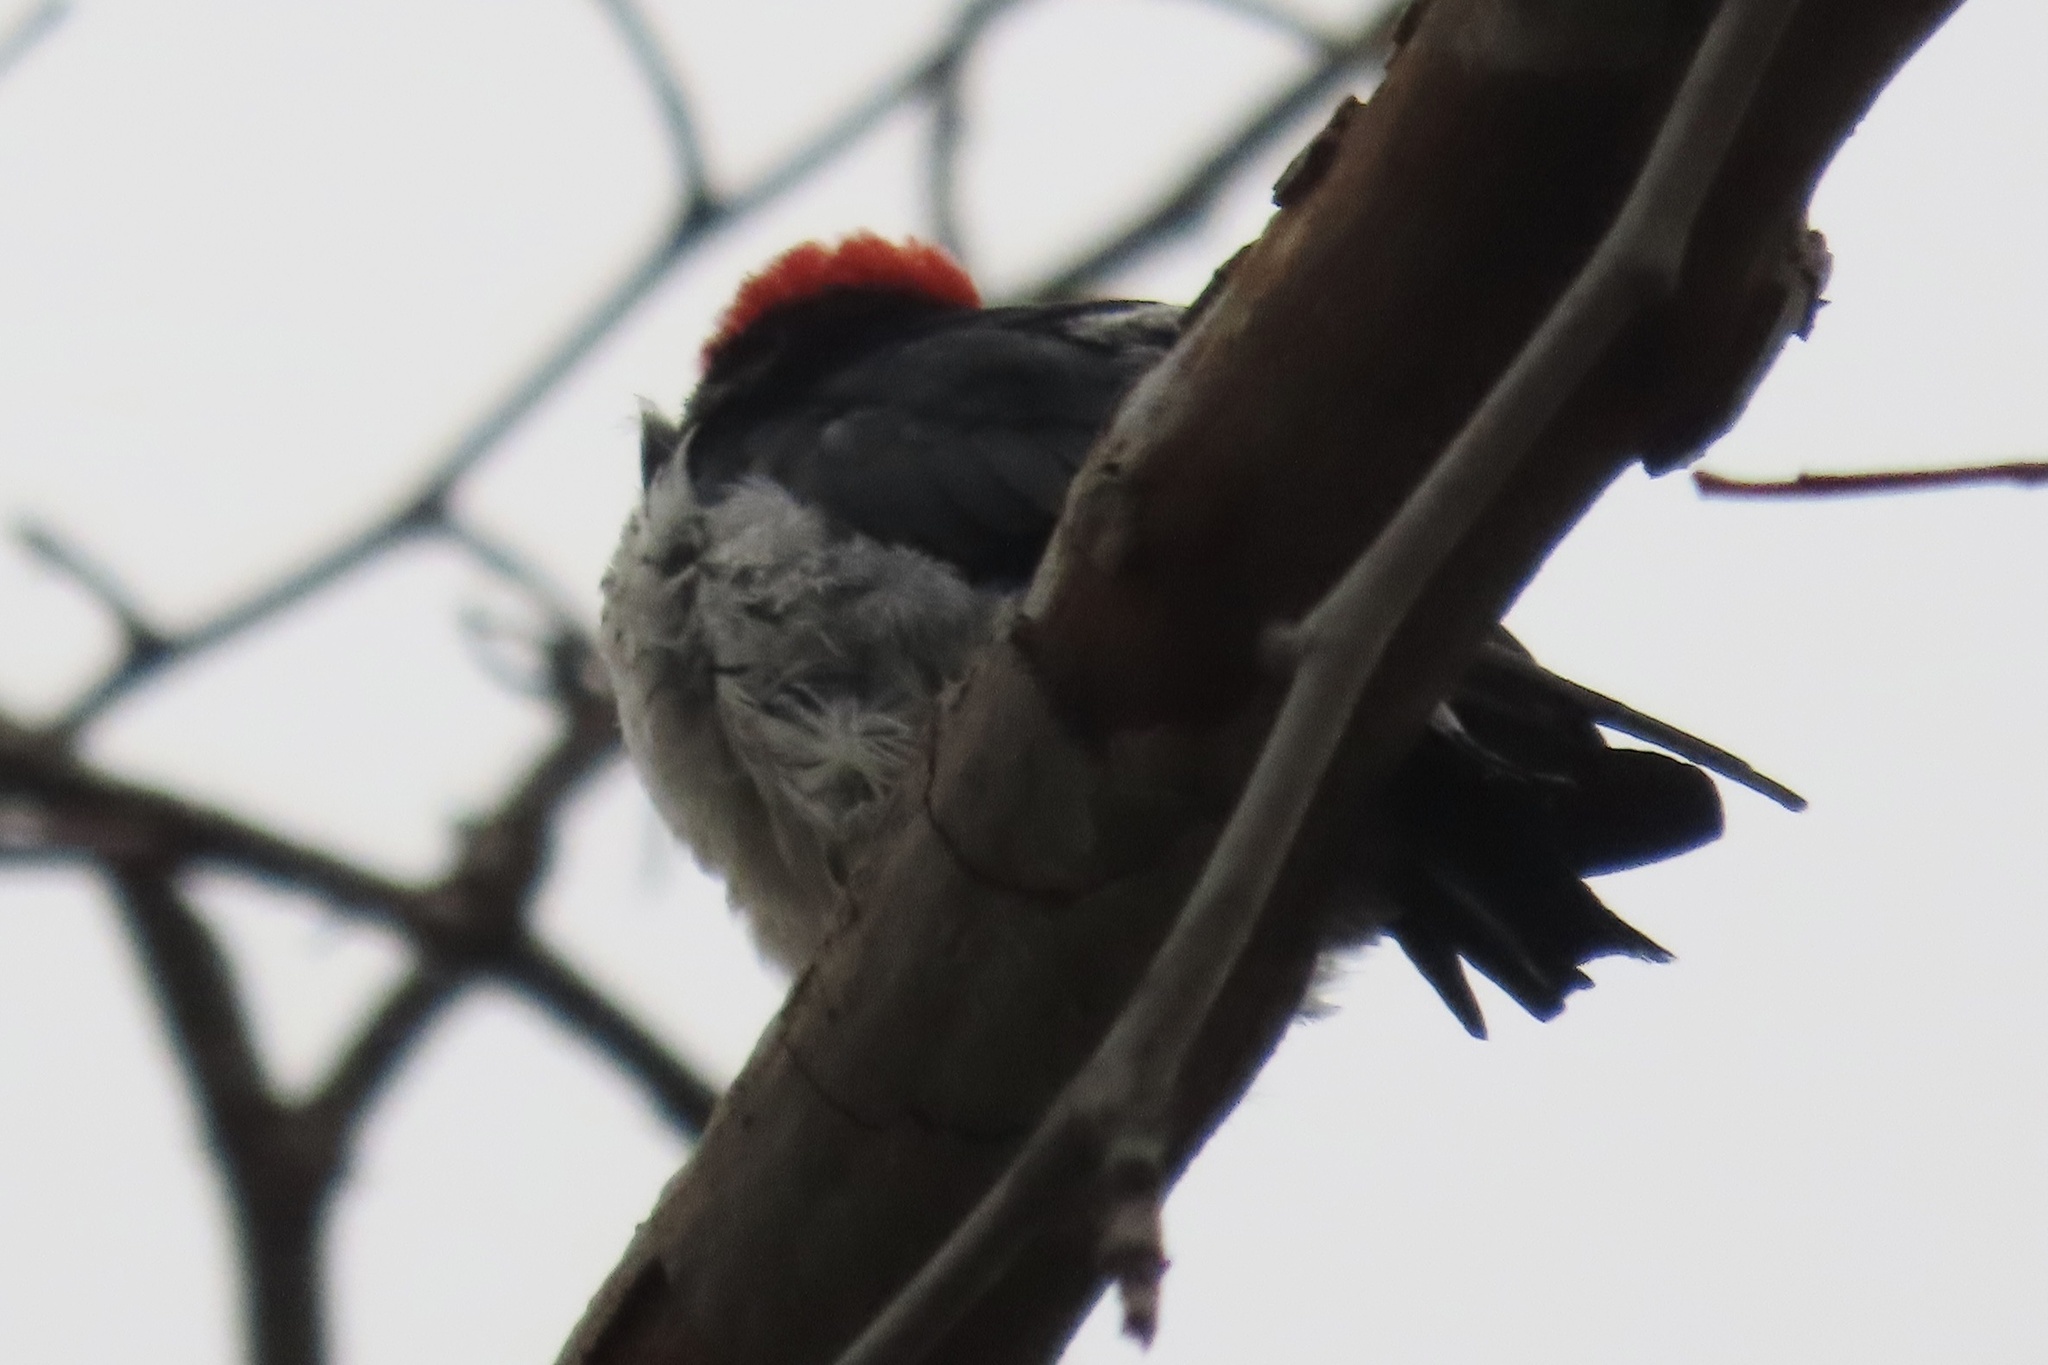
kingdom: Animalia
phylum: Chordata
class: Aves
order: Piciformes
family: Picidae
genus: Melanerpes
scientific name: Melanerpes formicivorus
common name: Acorn woodpecker
